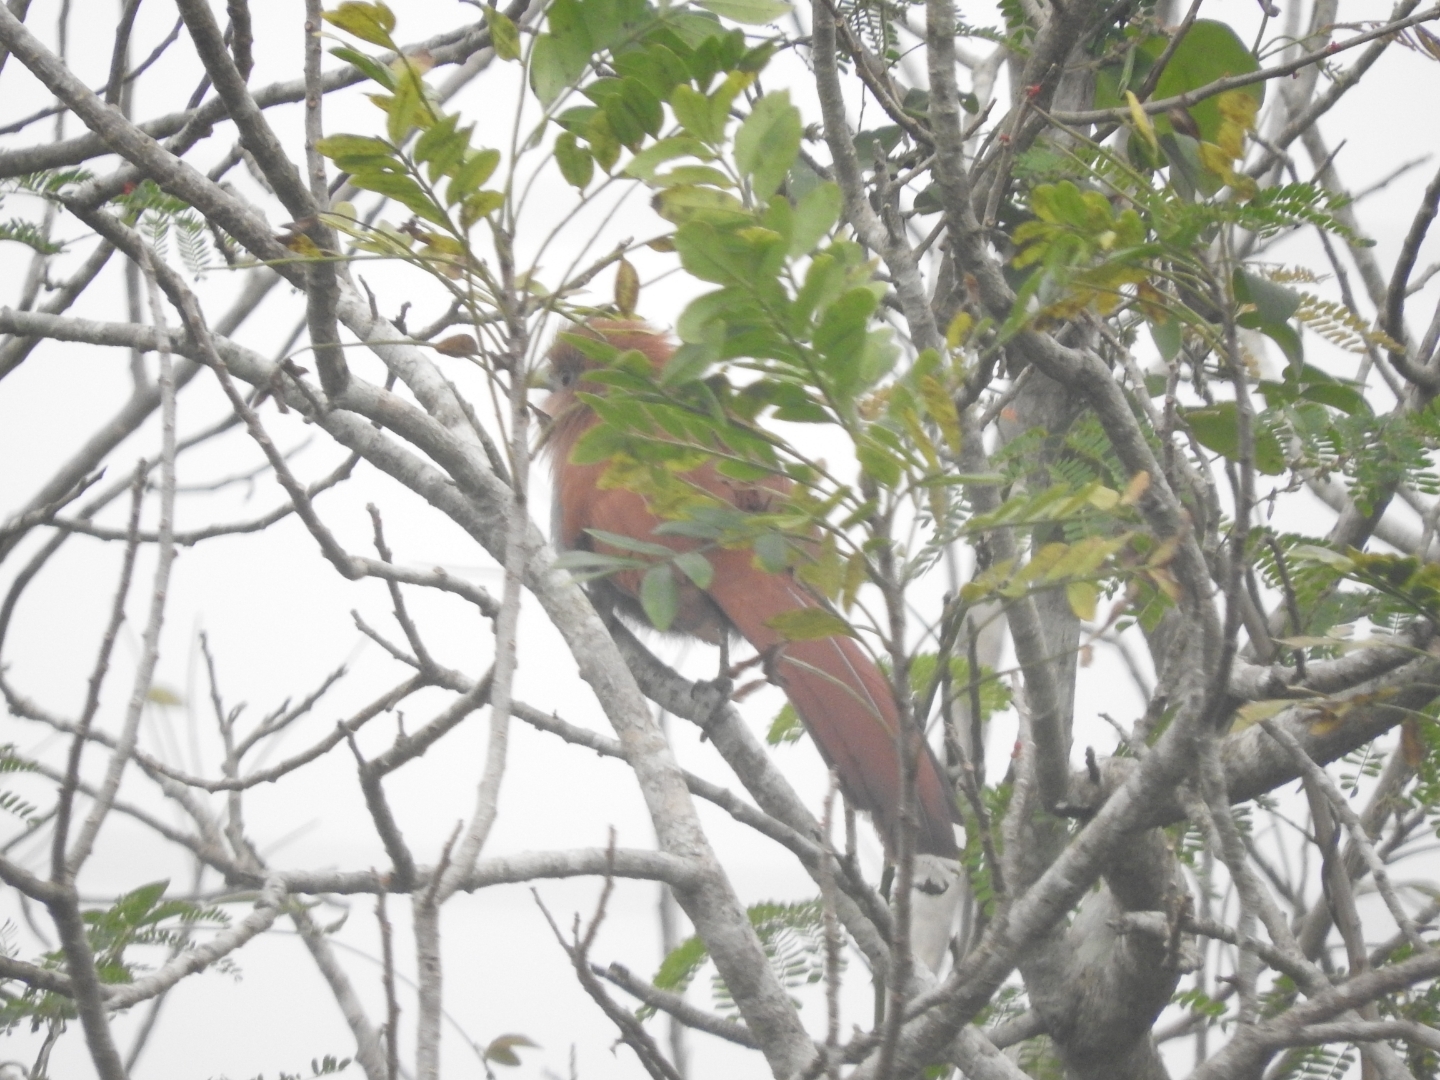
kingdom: Animalia
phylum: Chordata
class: Aves
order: Cuculiformes
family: Cuculidae
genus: Piaya
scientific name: Piaya cayana
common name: Squirrel cuckoo
